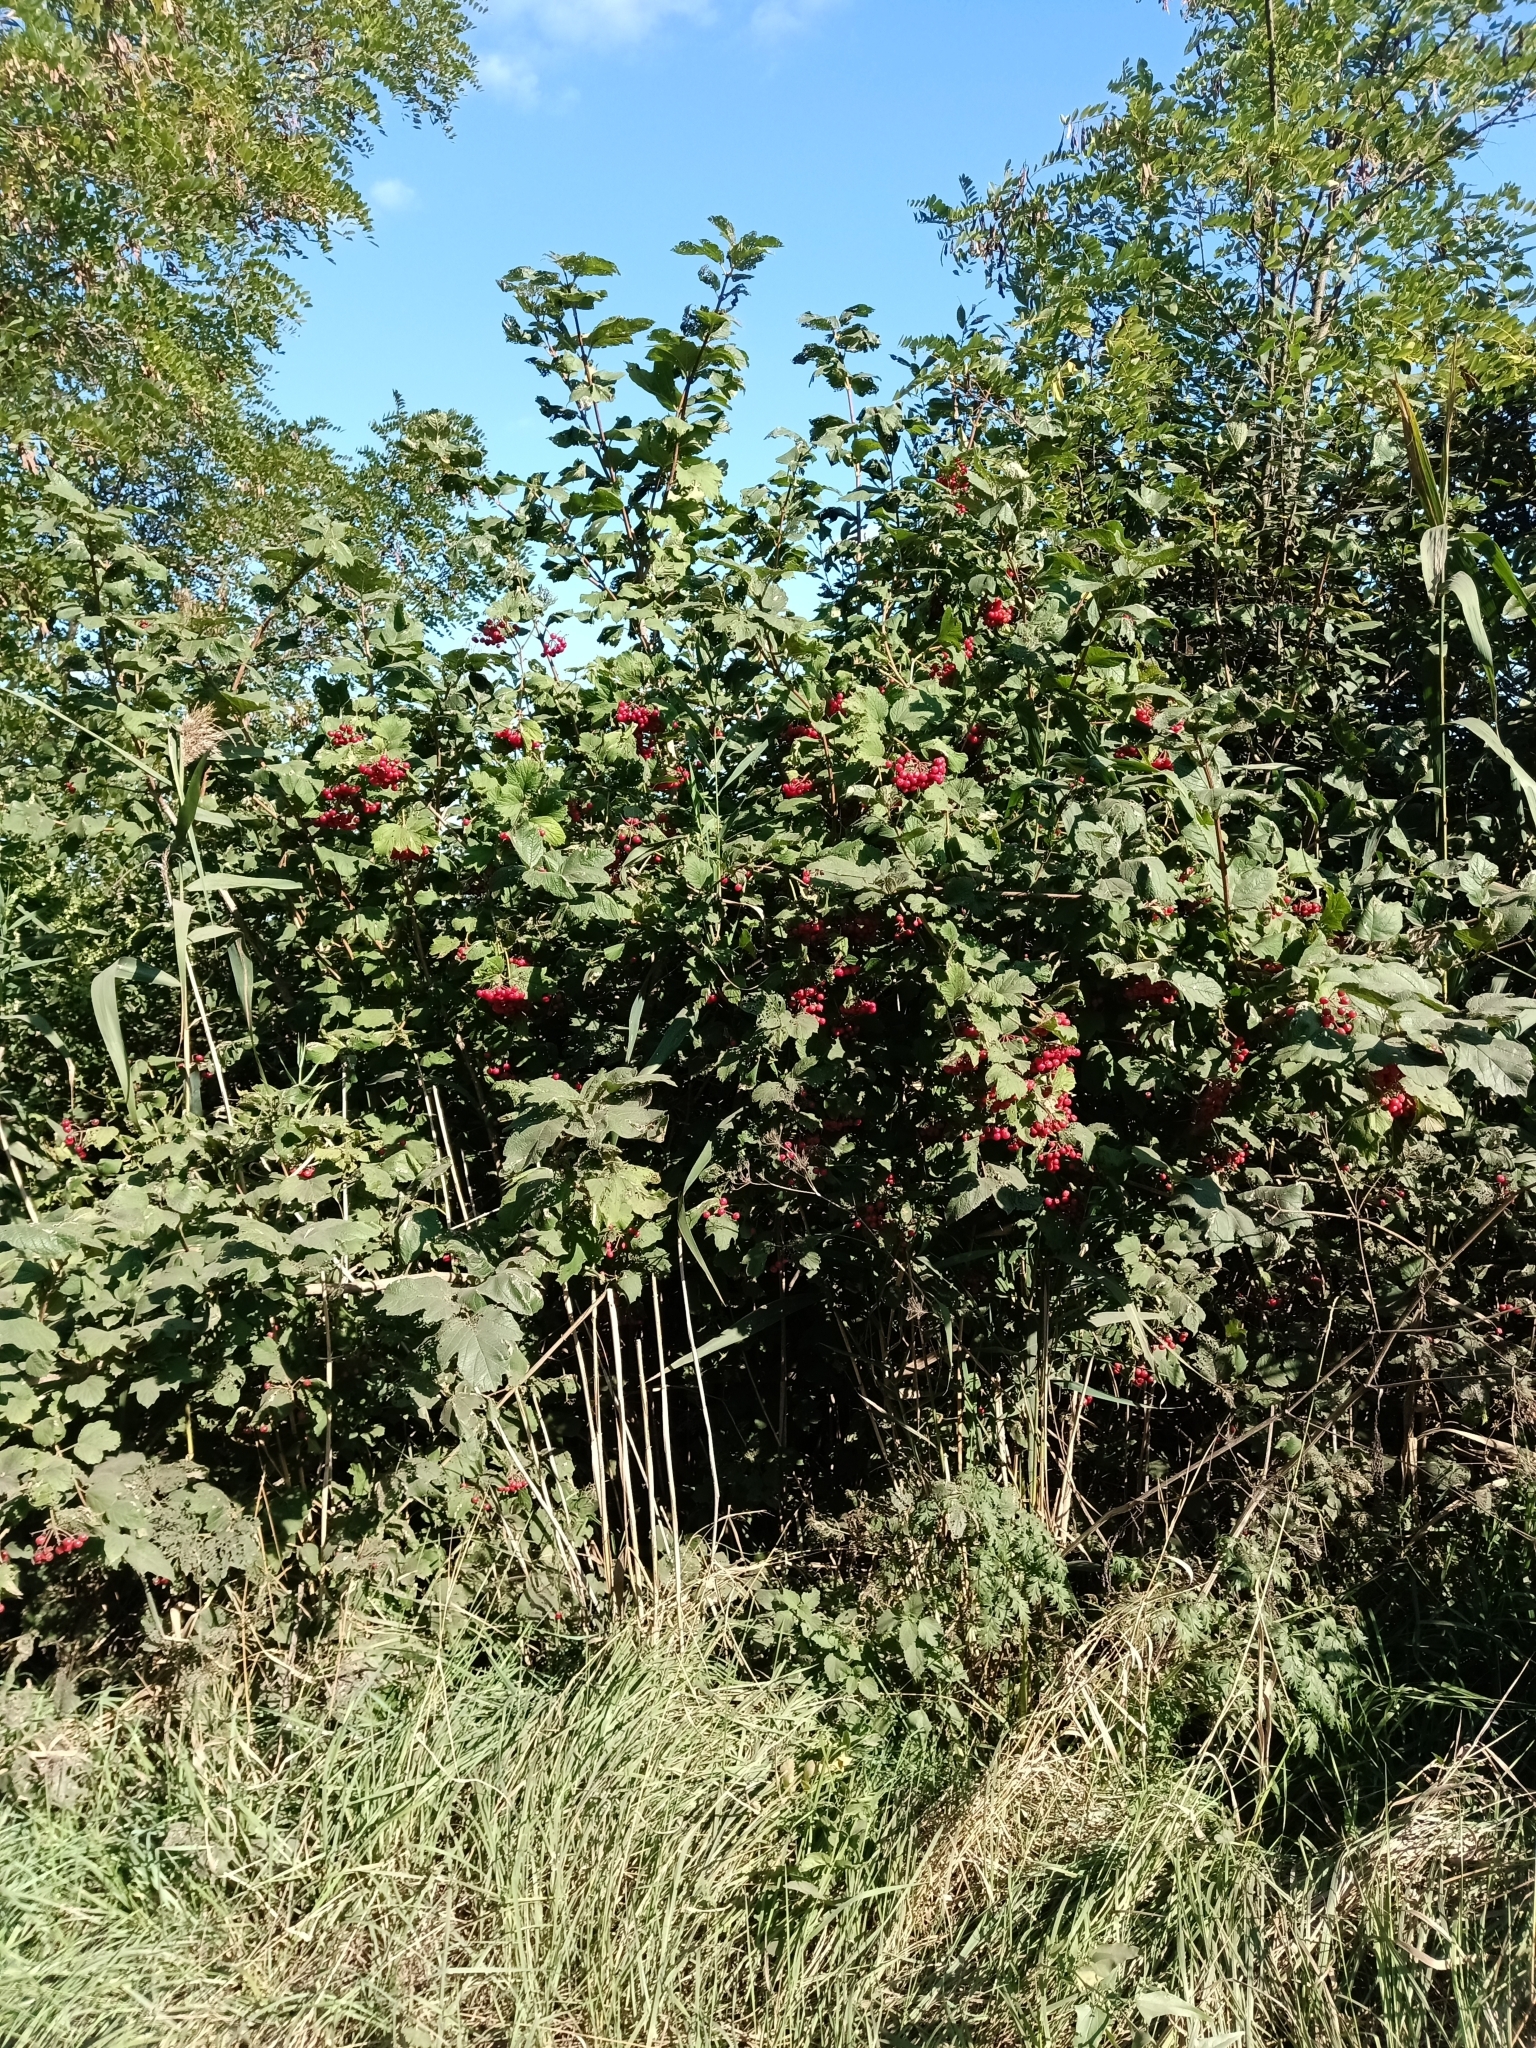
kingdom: Plantae
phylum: Tracheophyta
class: Magnoliopsida
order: Dipsacales
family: Viburnaceae
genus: Viburnum
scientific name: Viburnum opulus
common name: Guelder-rose
